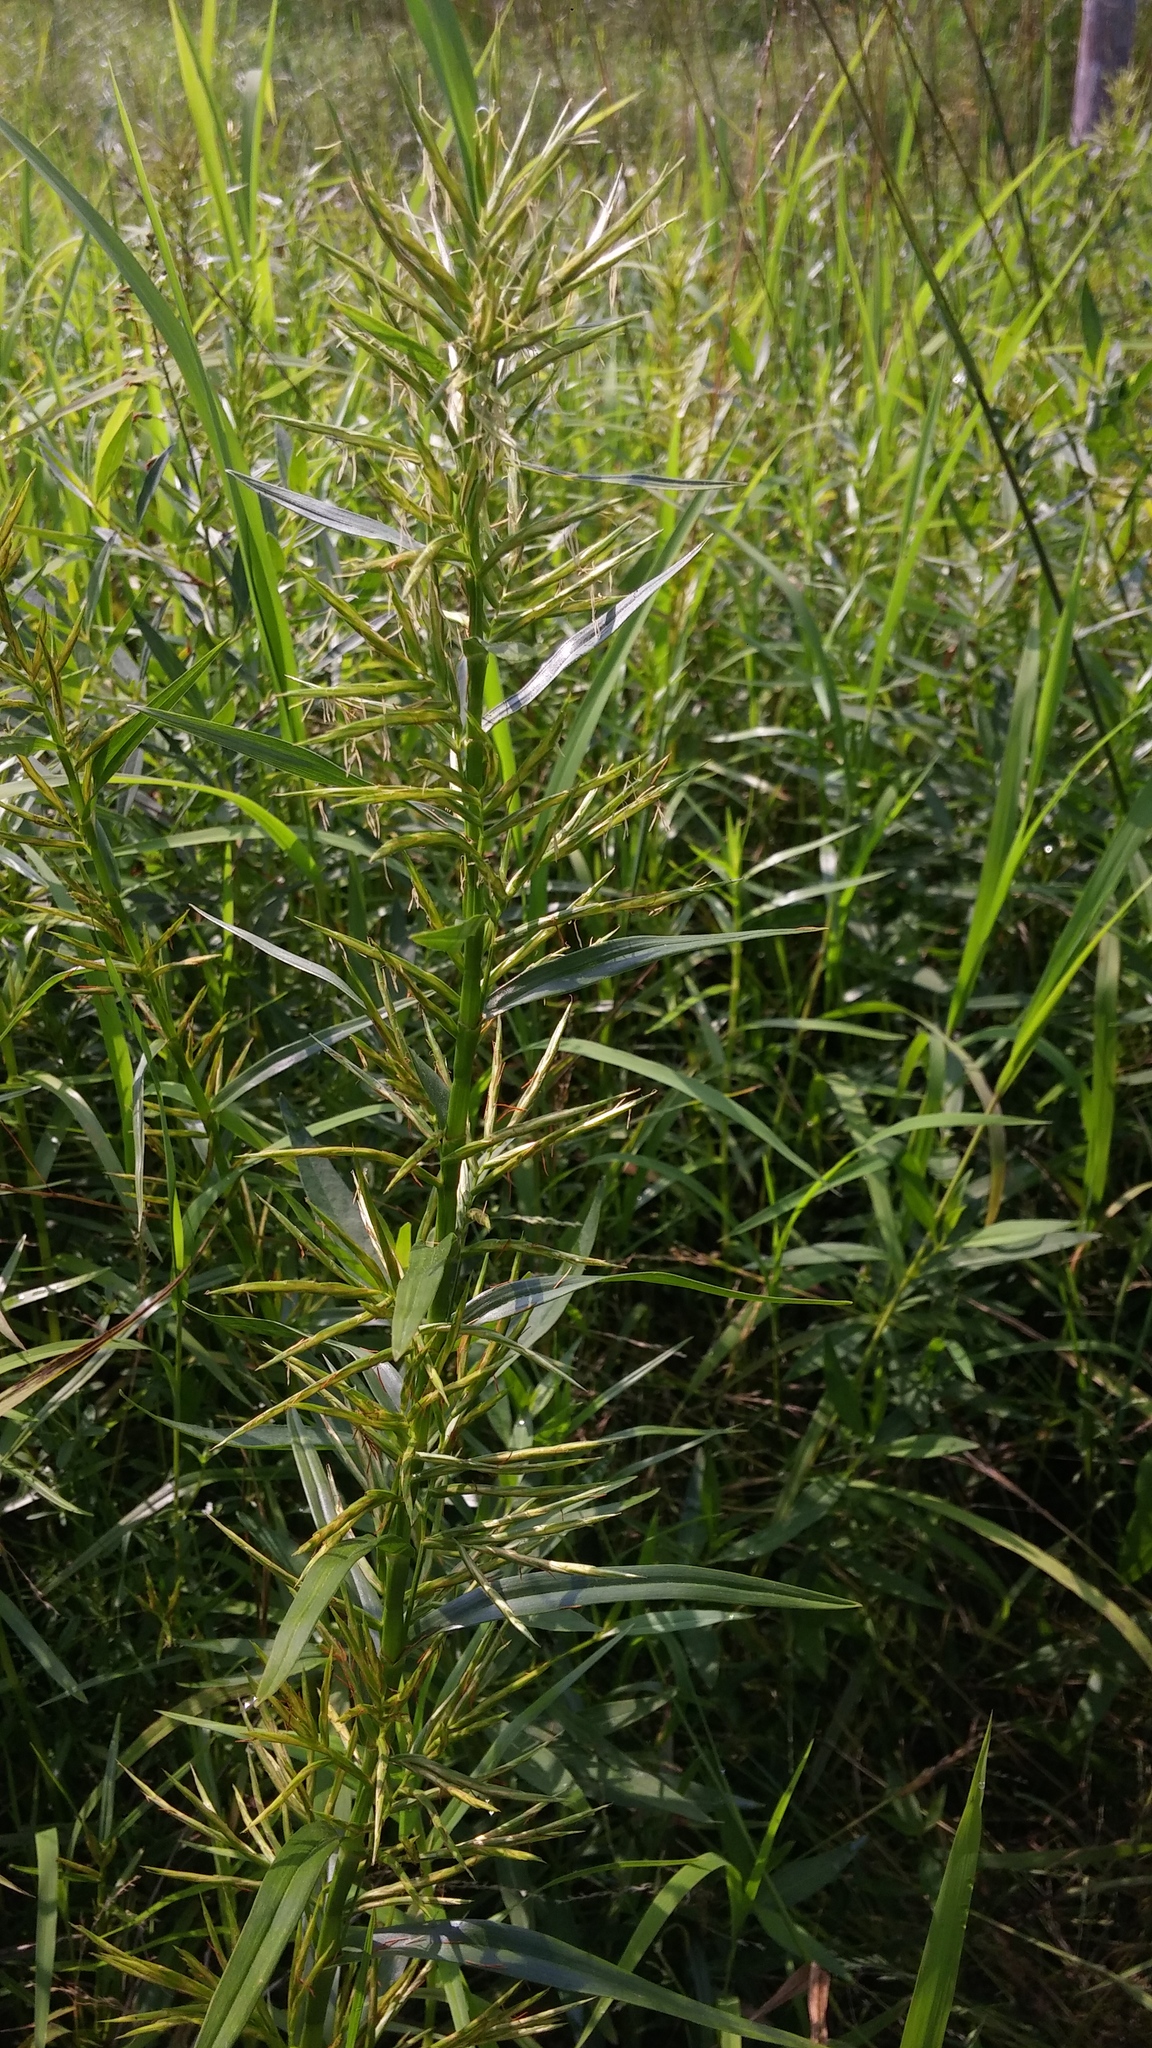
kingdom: Plantae
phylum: Tracheophyta
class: Liliopsida
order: Poales
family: Cyperaceae
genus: Dulichium
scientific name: Dulichium arundinaceum
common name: Three-way sedge
